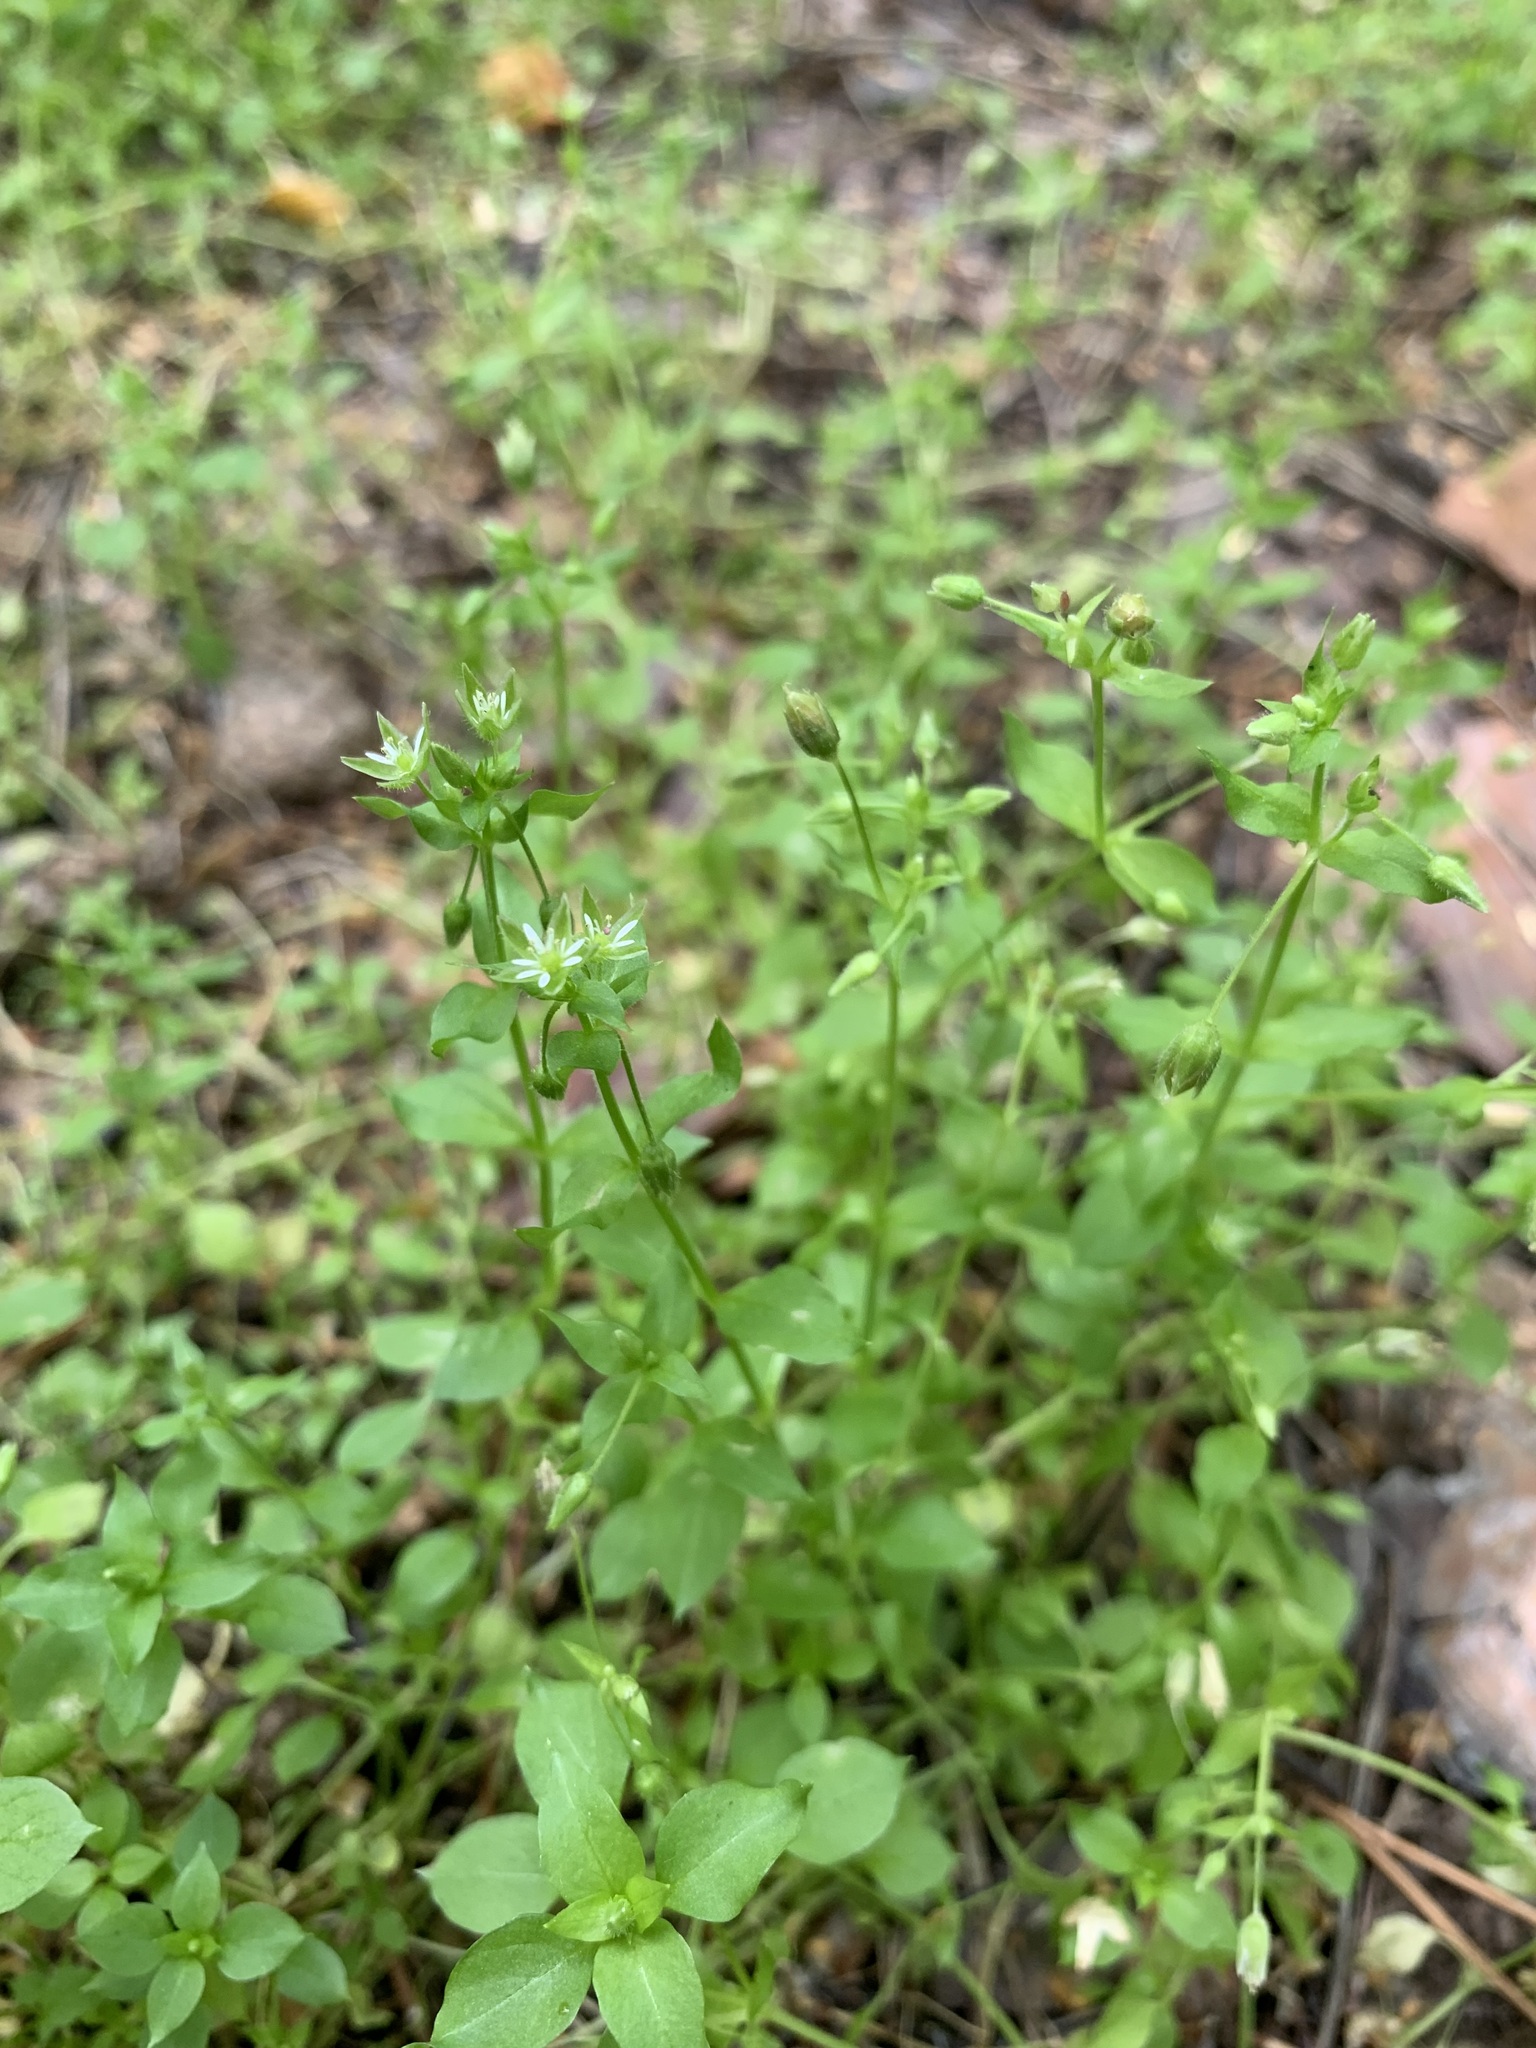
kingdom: Plantae
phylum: Tracheophyta
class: Magnoliopsida
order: Caryophyllales
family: Caryophyllaceae
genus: Stellaria
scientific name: Stellaria media
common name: Common chickweed
